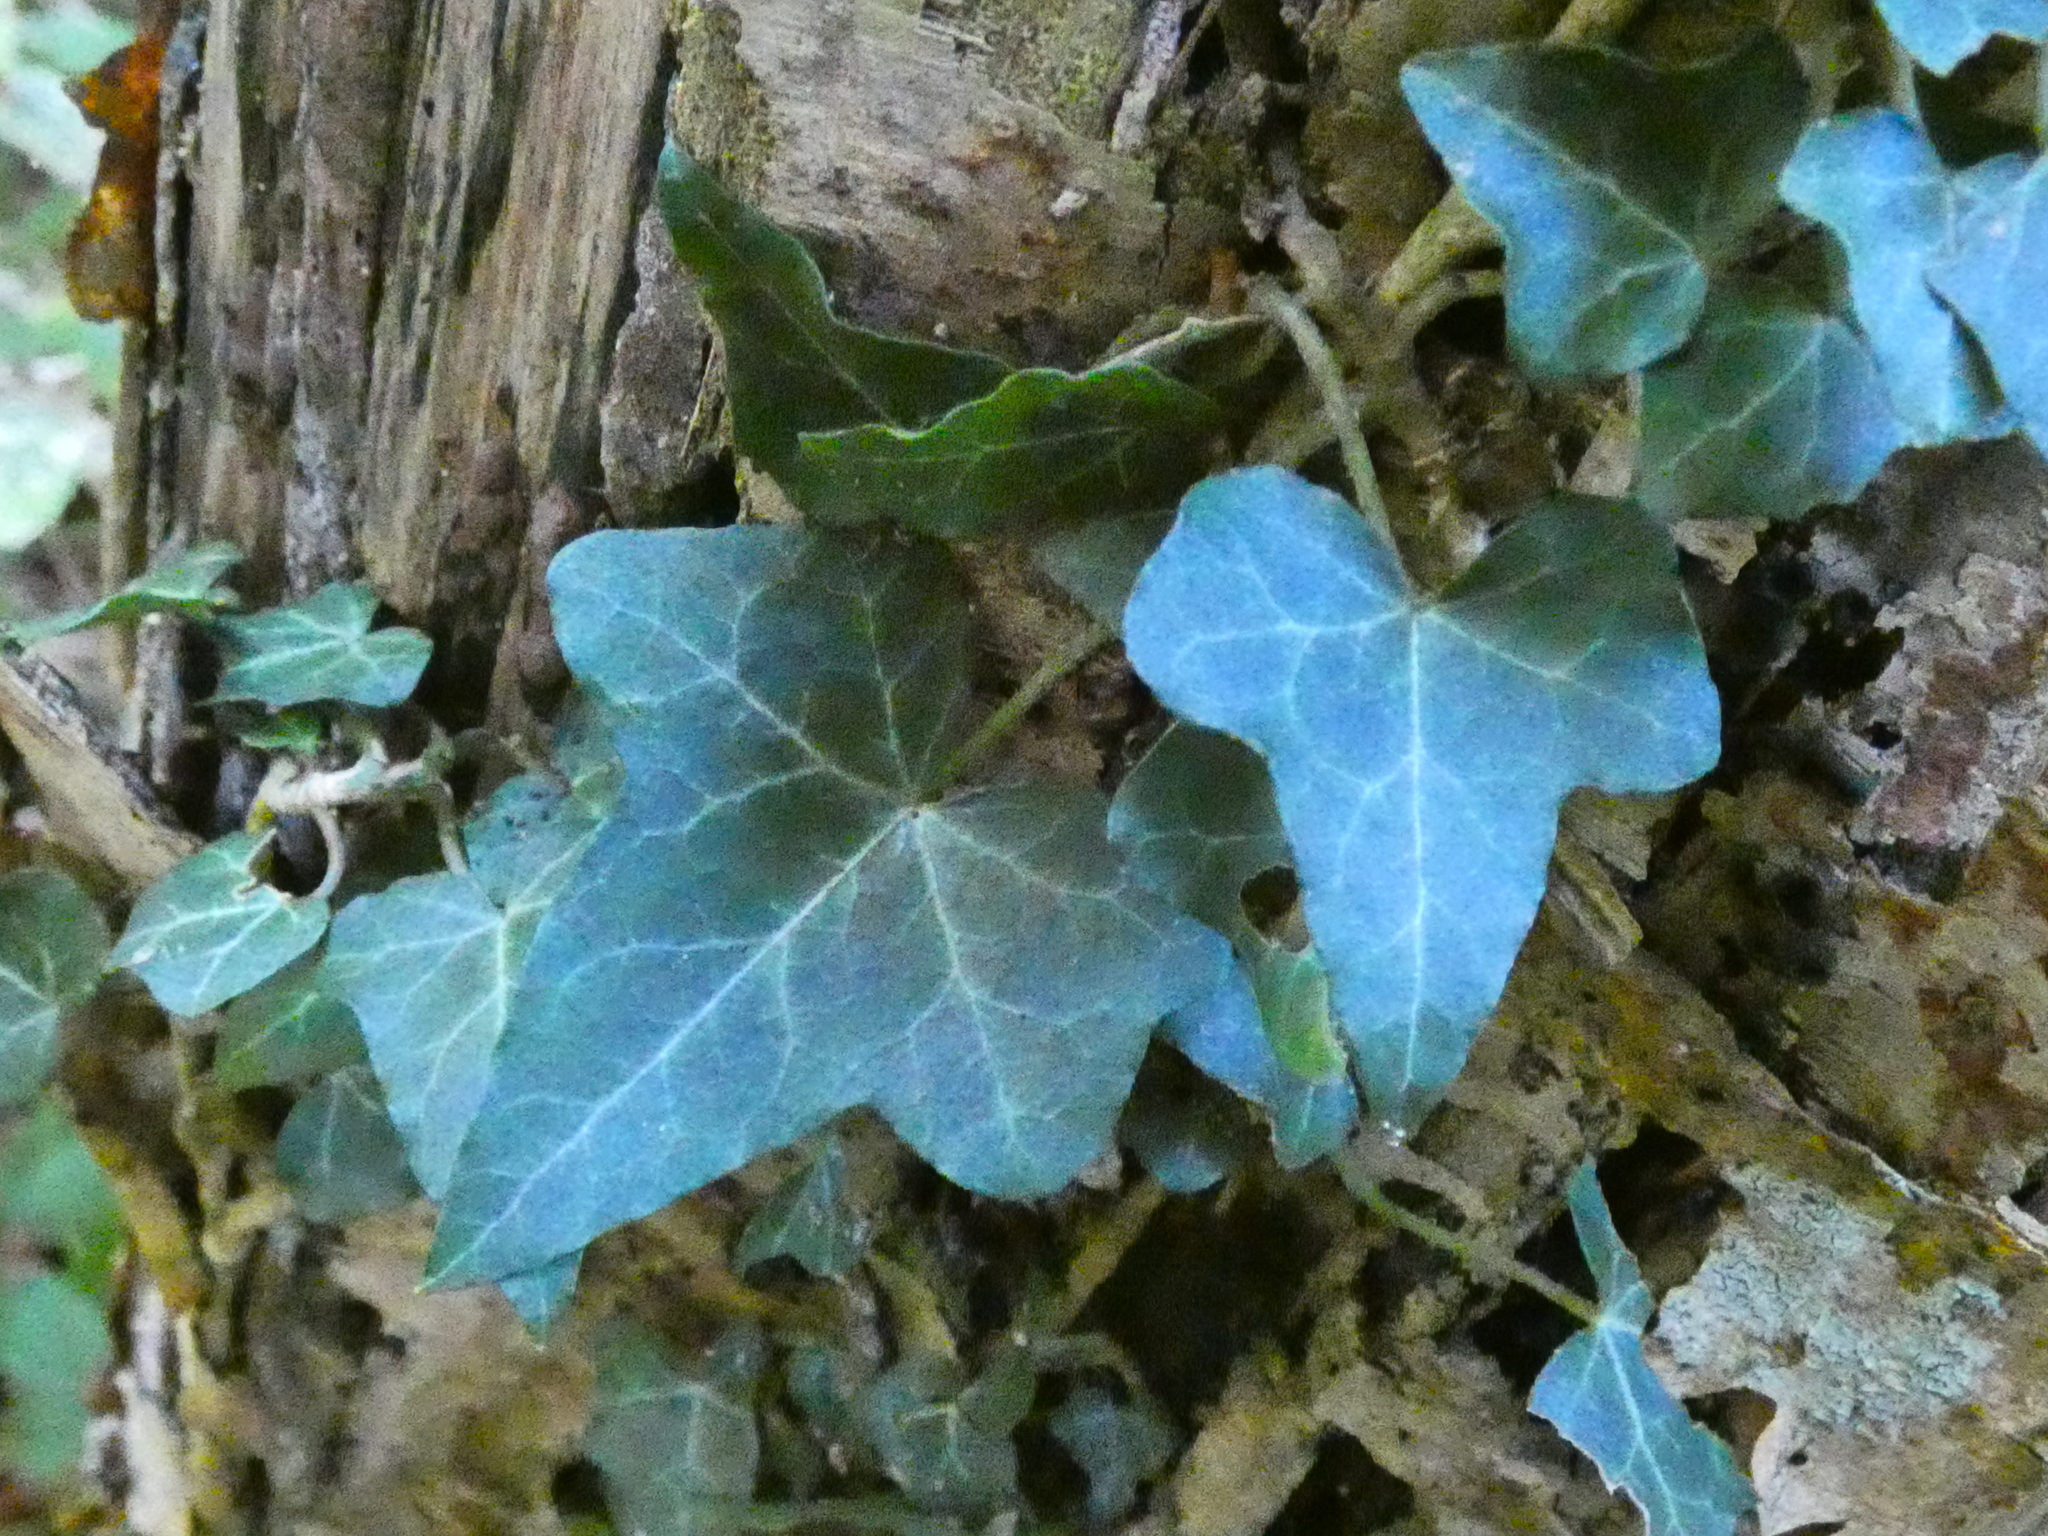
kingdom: Plantae
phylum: Tracheophyta
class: Magnoliopsida
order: Apiales
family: Araliaceae
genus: Hedera
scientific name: Hedera helix
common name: Ivy
